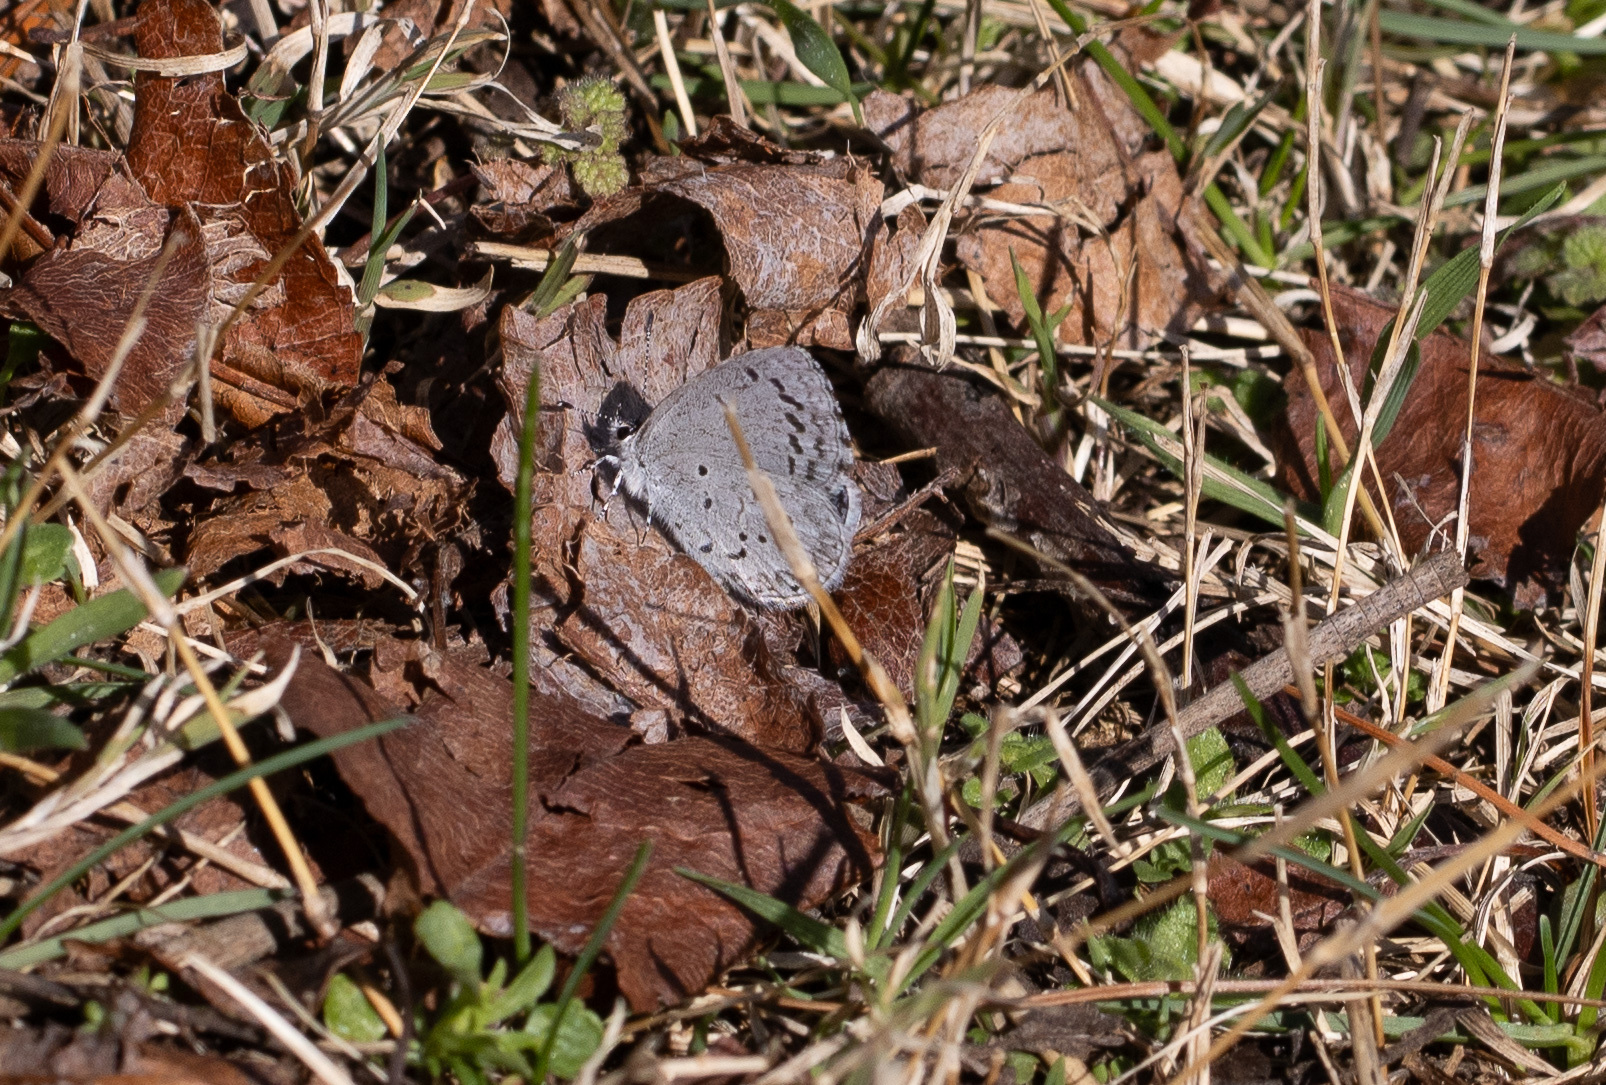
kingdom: Animalia
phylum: Arthropoda
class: Insecta
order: Lepidoptera
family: Lycaenidae
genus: Cyaniris
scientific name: Cyaniris neglecta
